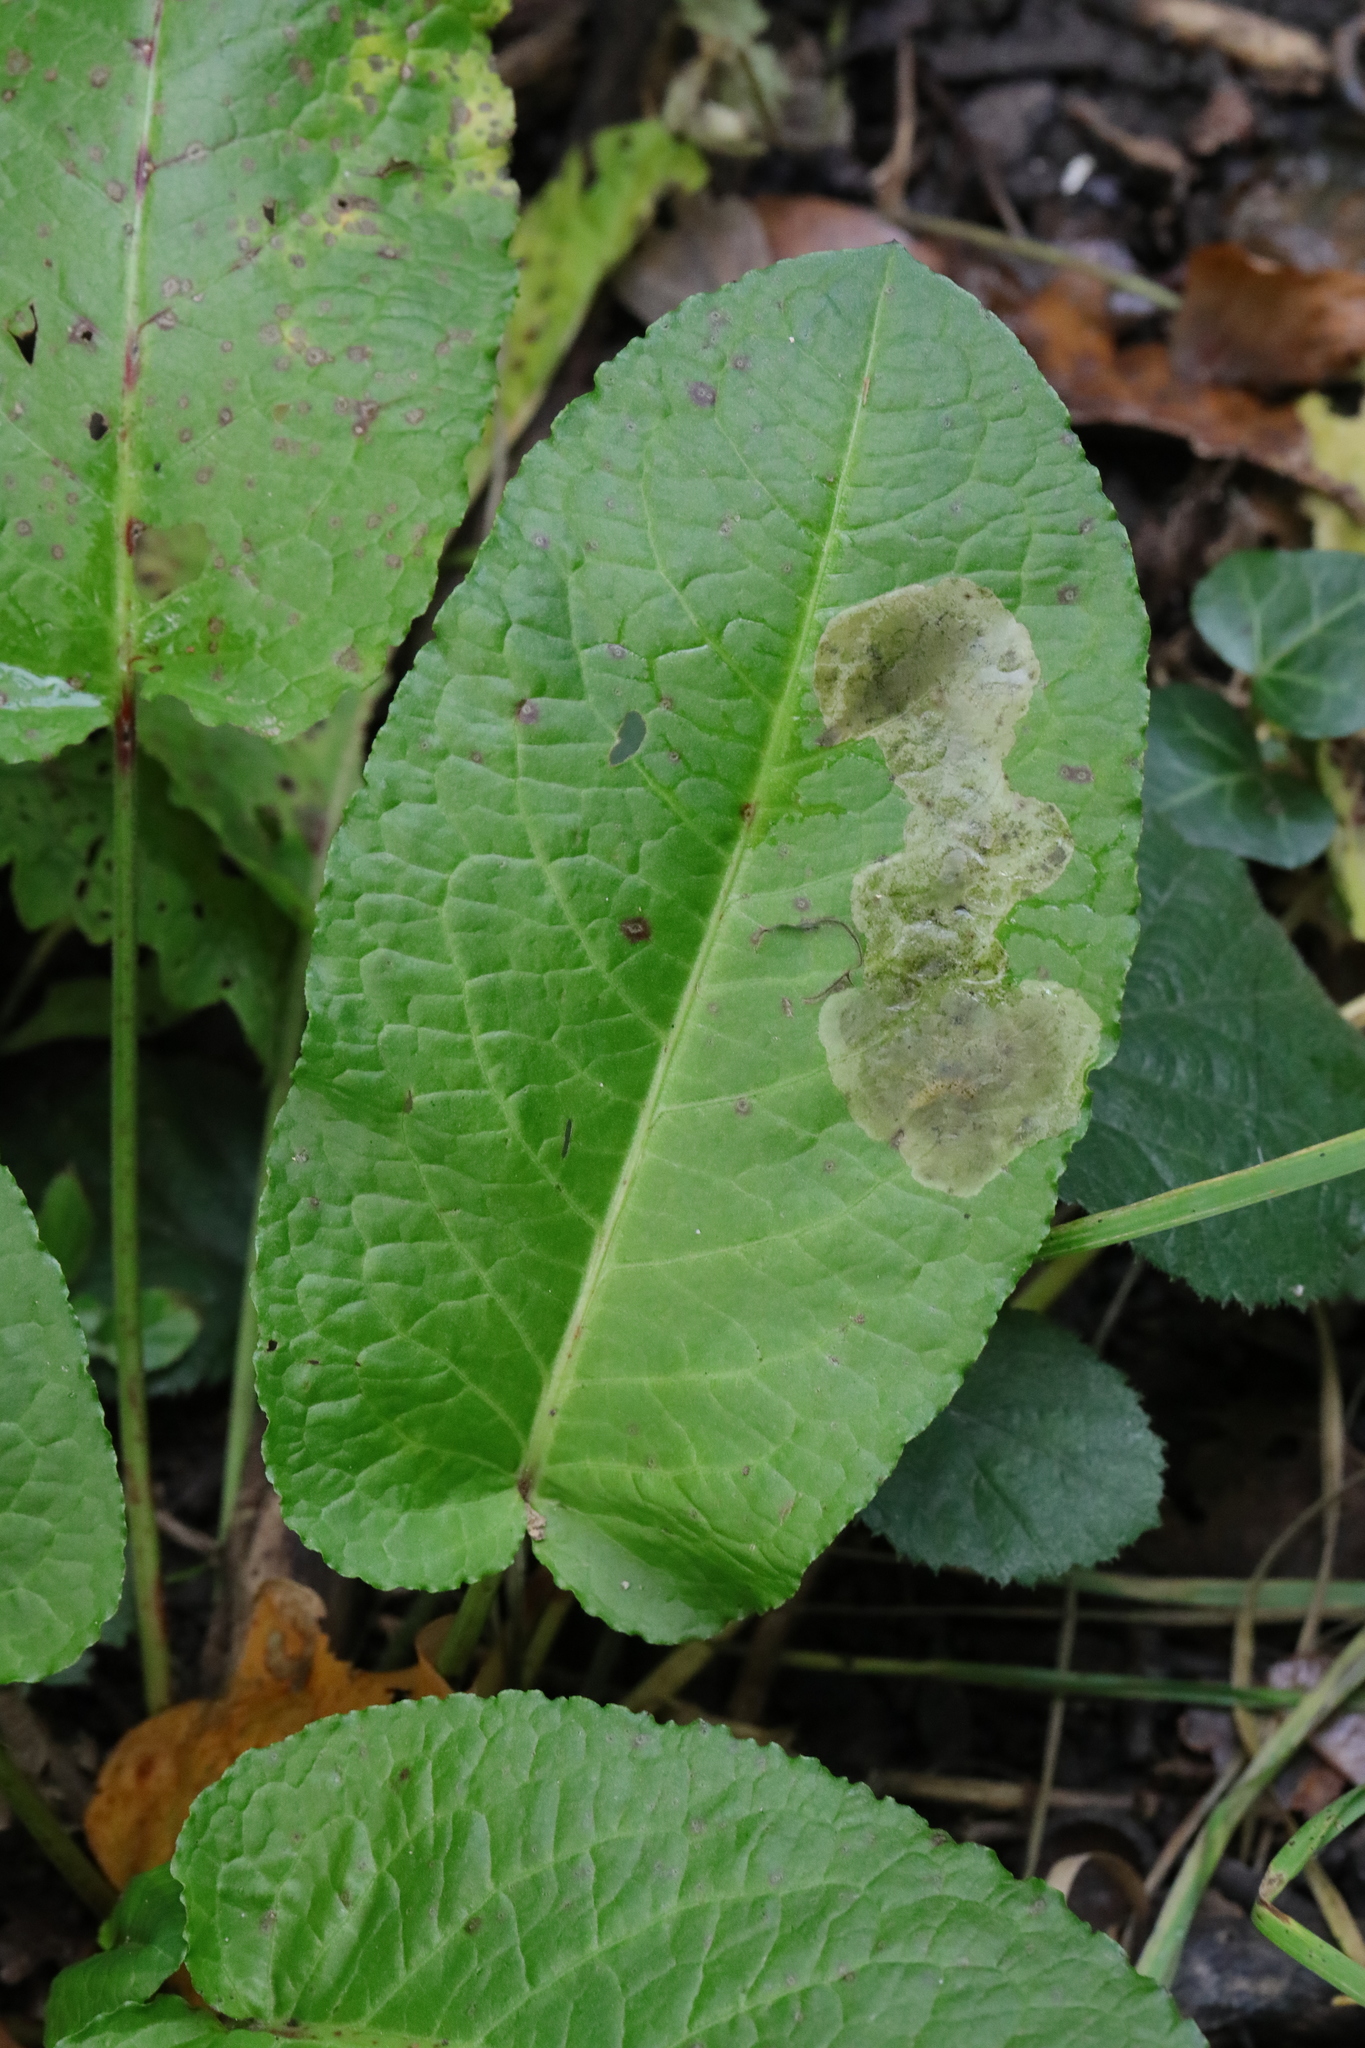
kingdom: Plantae
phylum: Tracheophyta
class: Magnoliopsida
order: Caryophyllales
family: Polygonaceae
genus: Rumex
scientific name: Rumex obtusifolius
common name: Bitter dock
